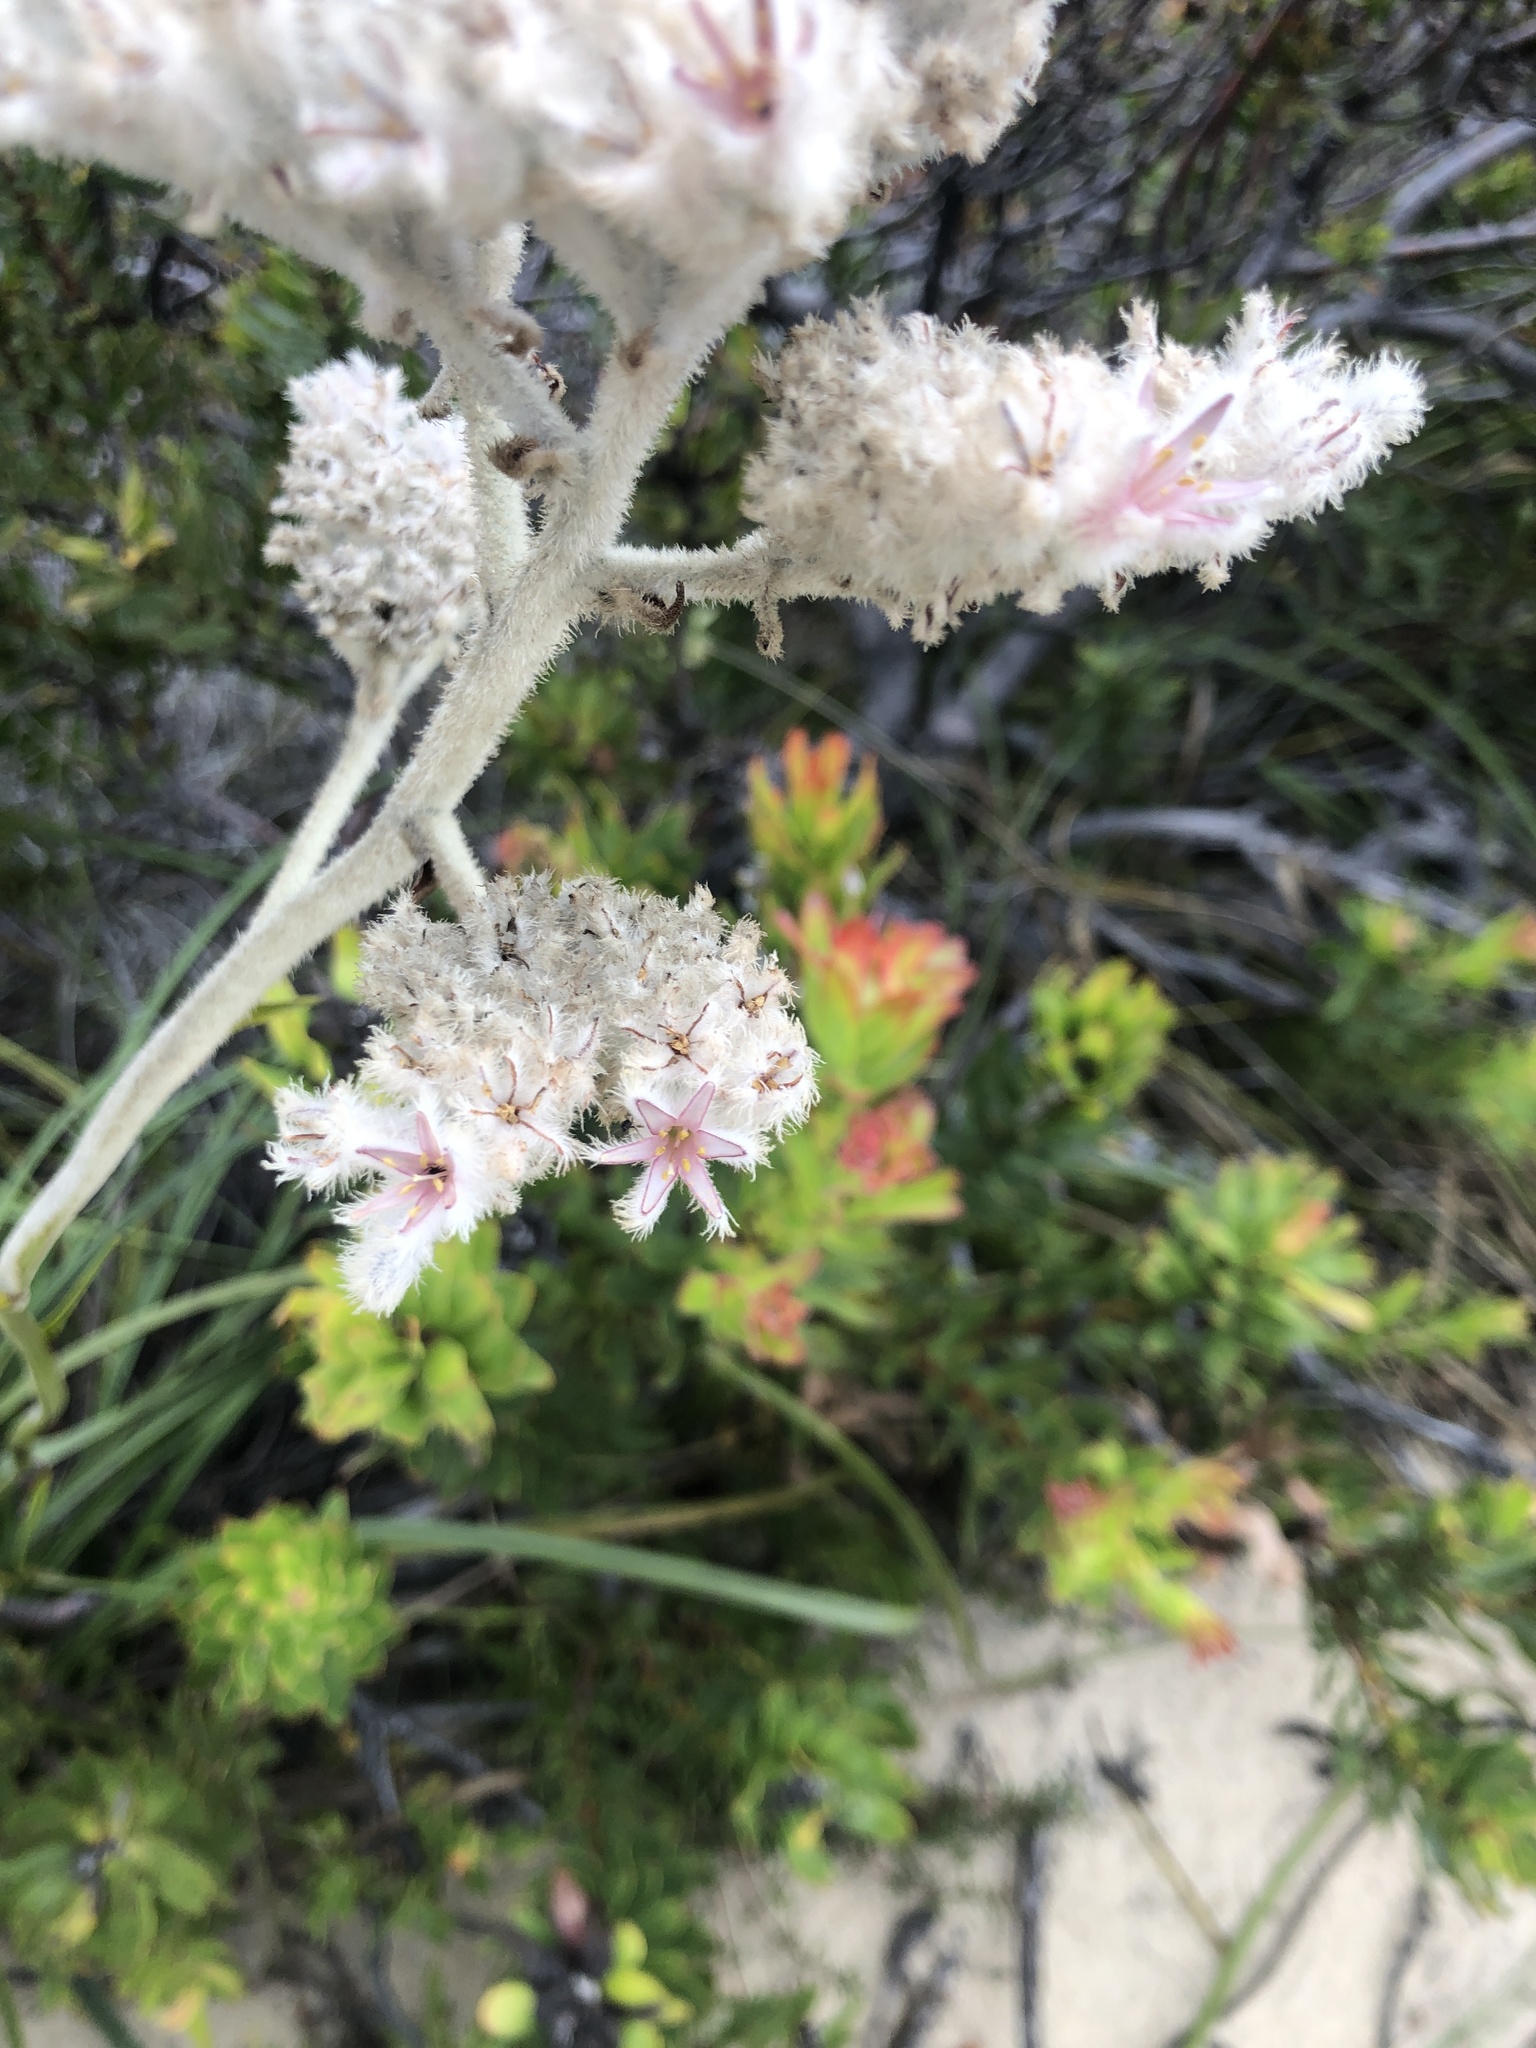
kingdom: Plantae
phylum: Tracheophyta
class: Liliopsida
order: Asparagales
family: Lanariaceae
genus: Lanaria
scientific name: Lanaria lanata
